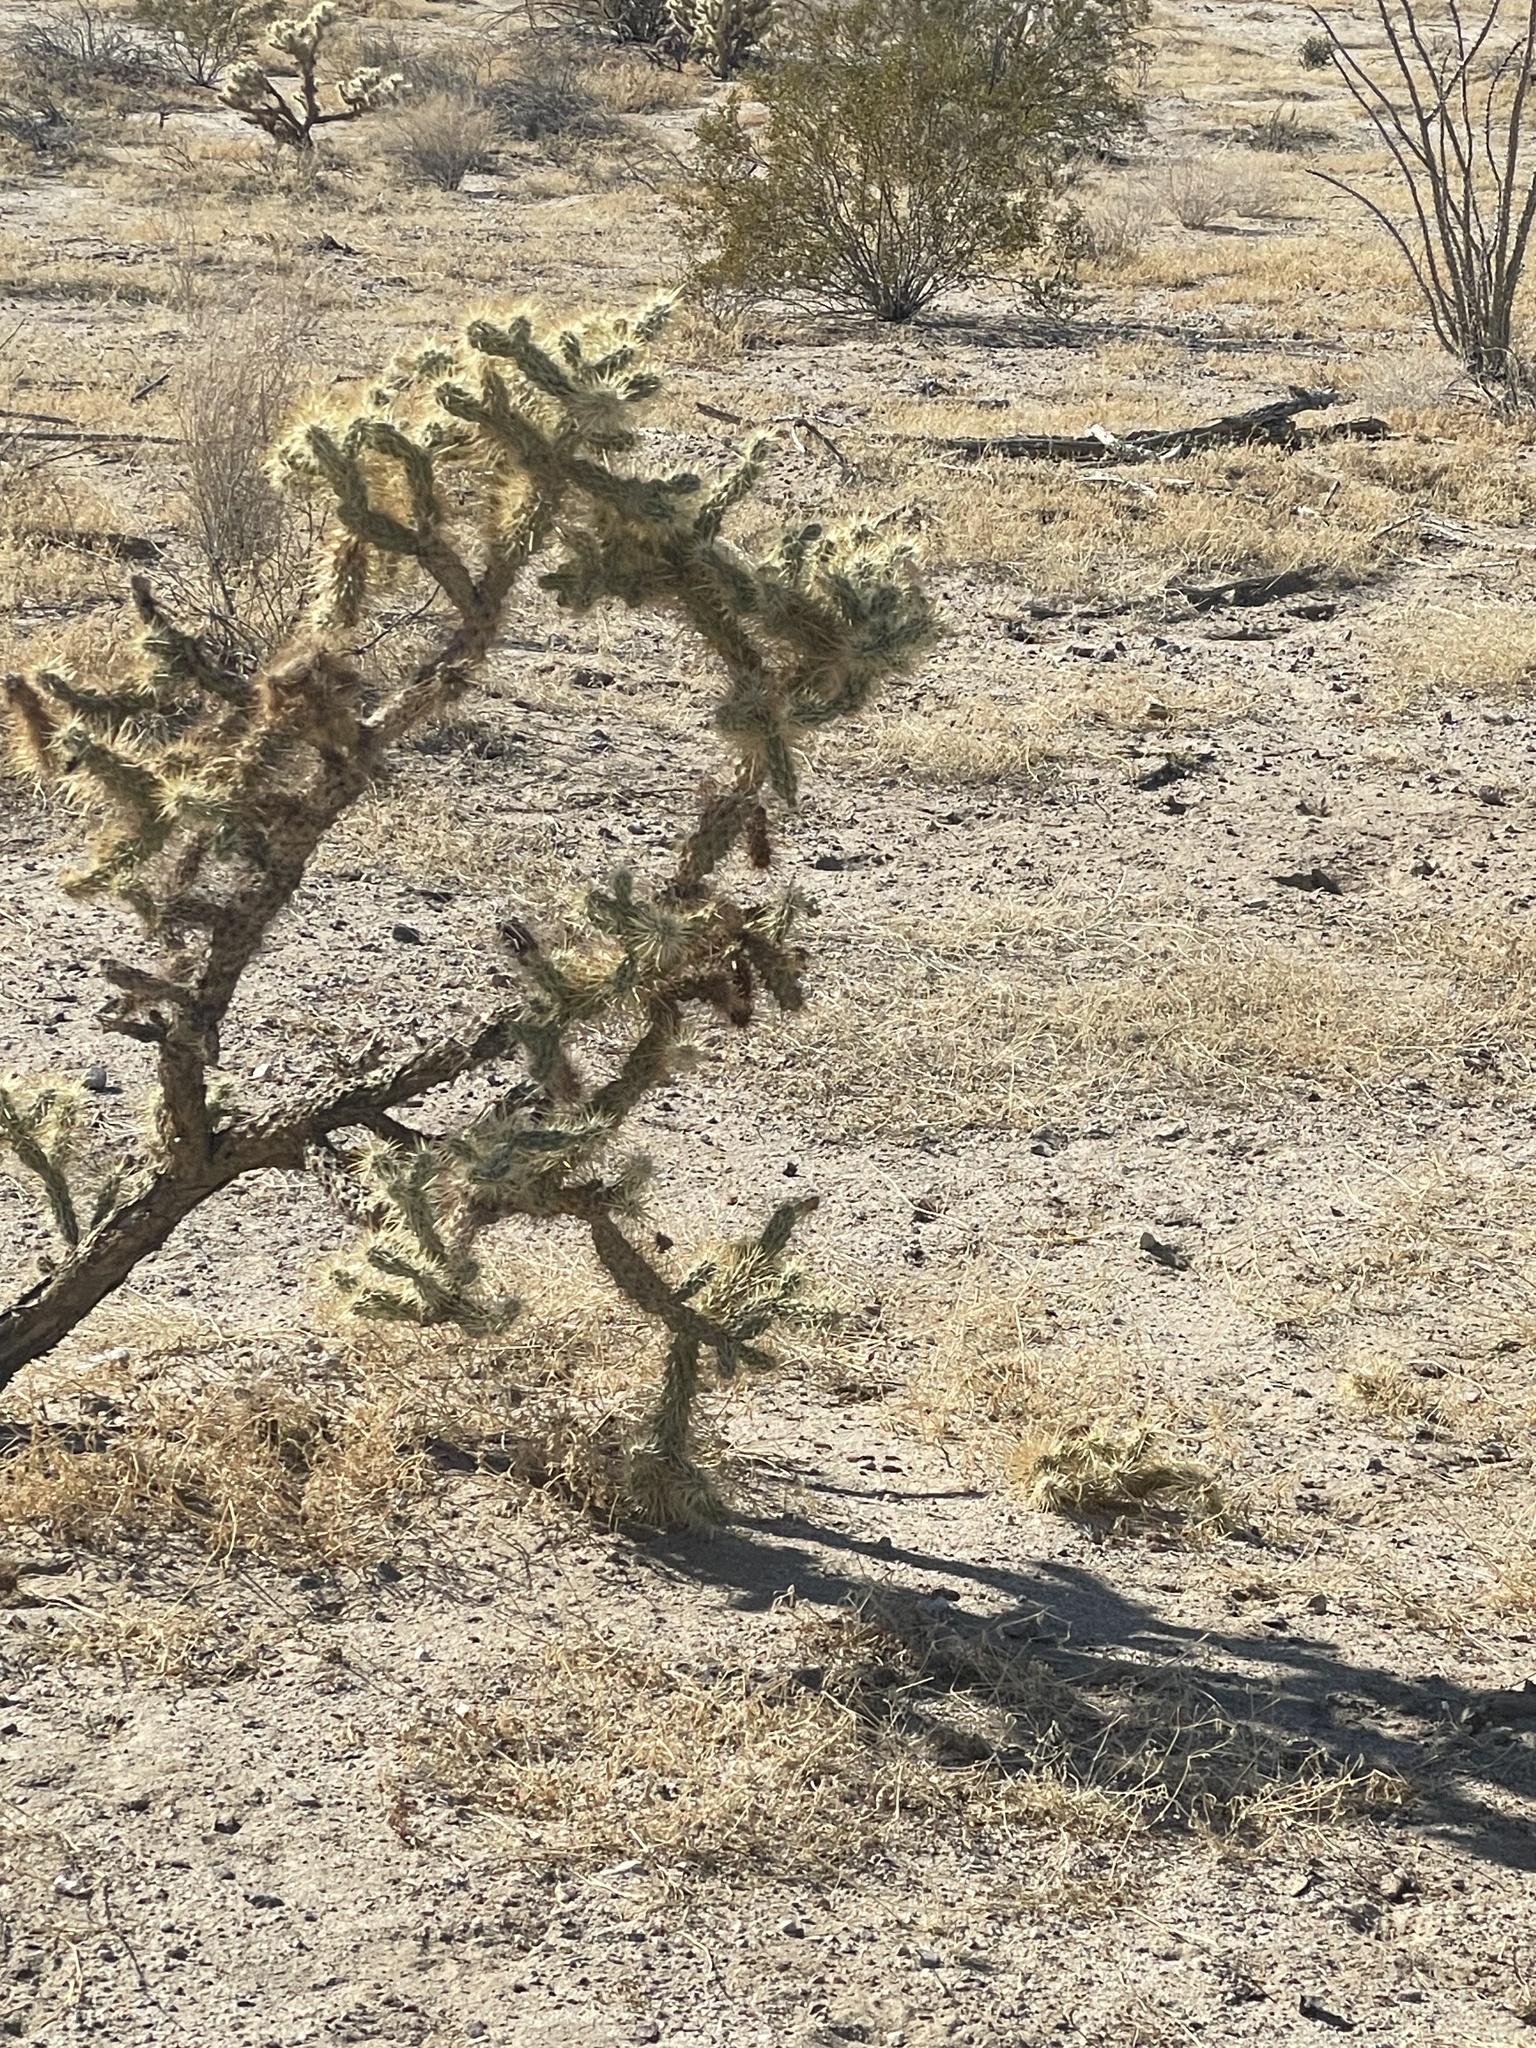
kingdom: Plantae
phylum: Tracheophyta
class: Magnoliopsida
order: Caryophyllales
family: Cactaceae
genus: Cylindropuntia
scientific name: Cylindropuntia echinocarpa
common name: Ground cholla
